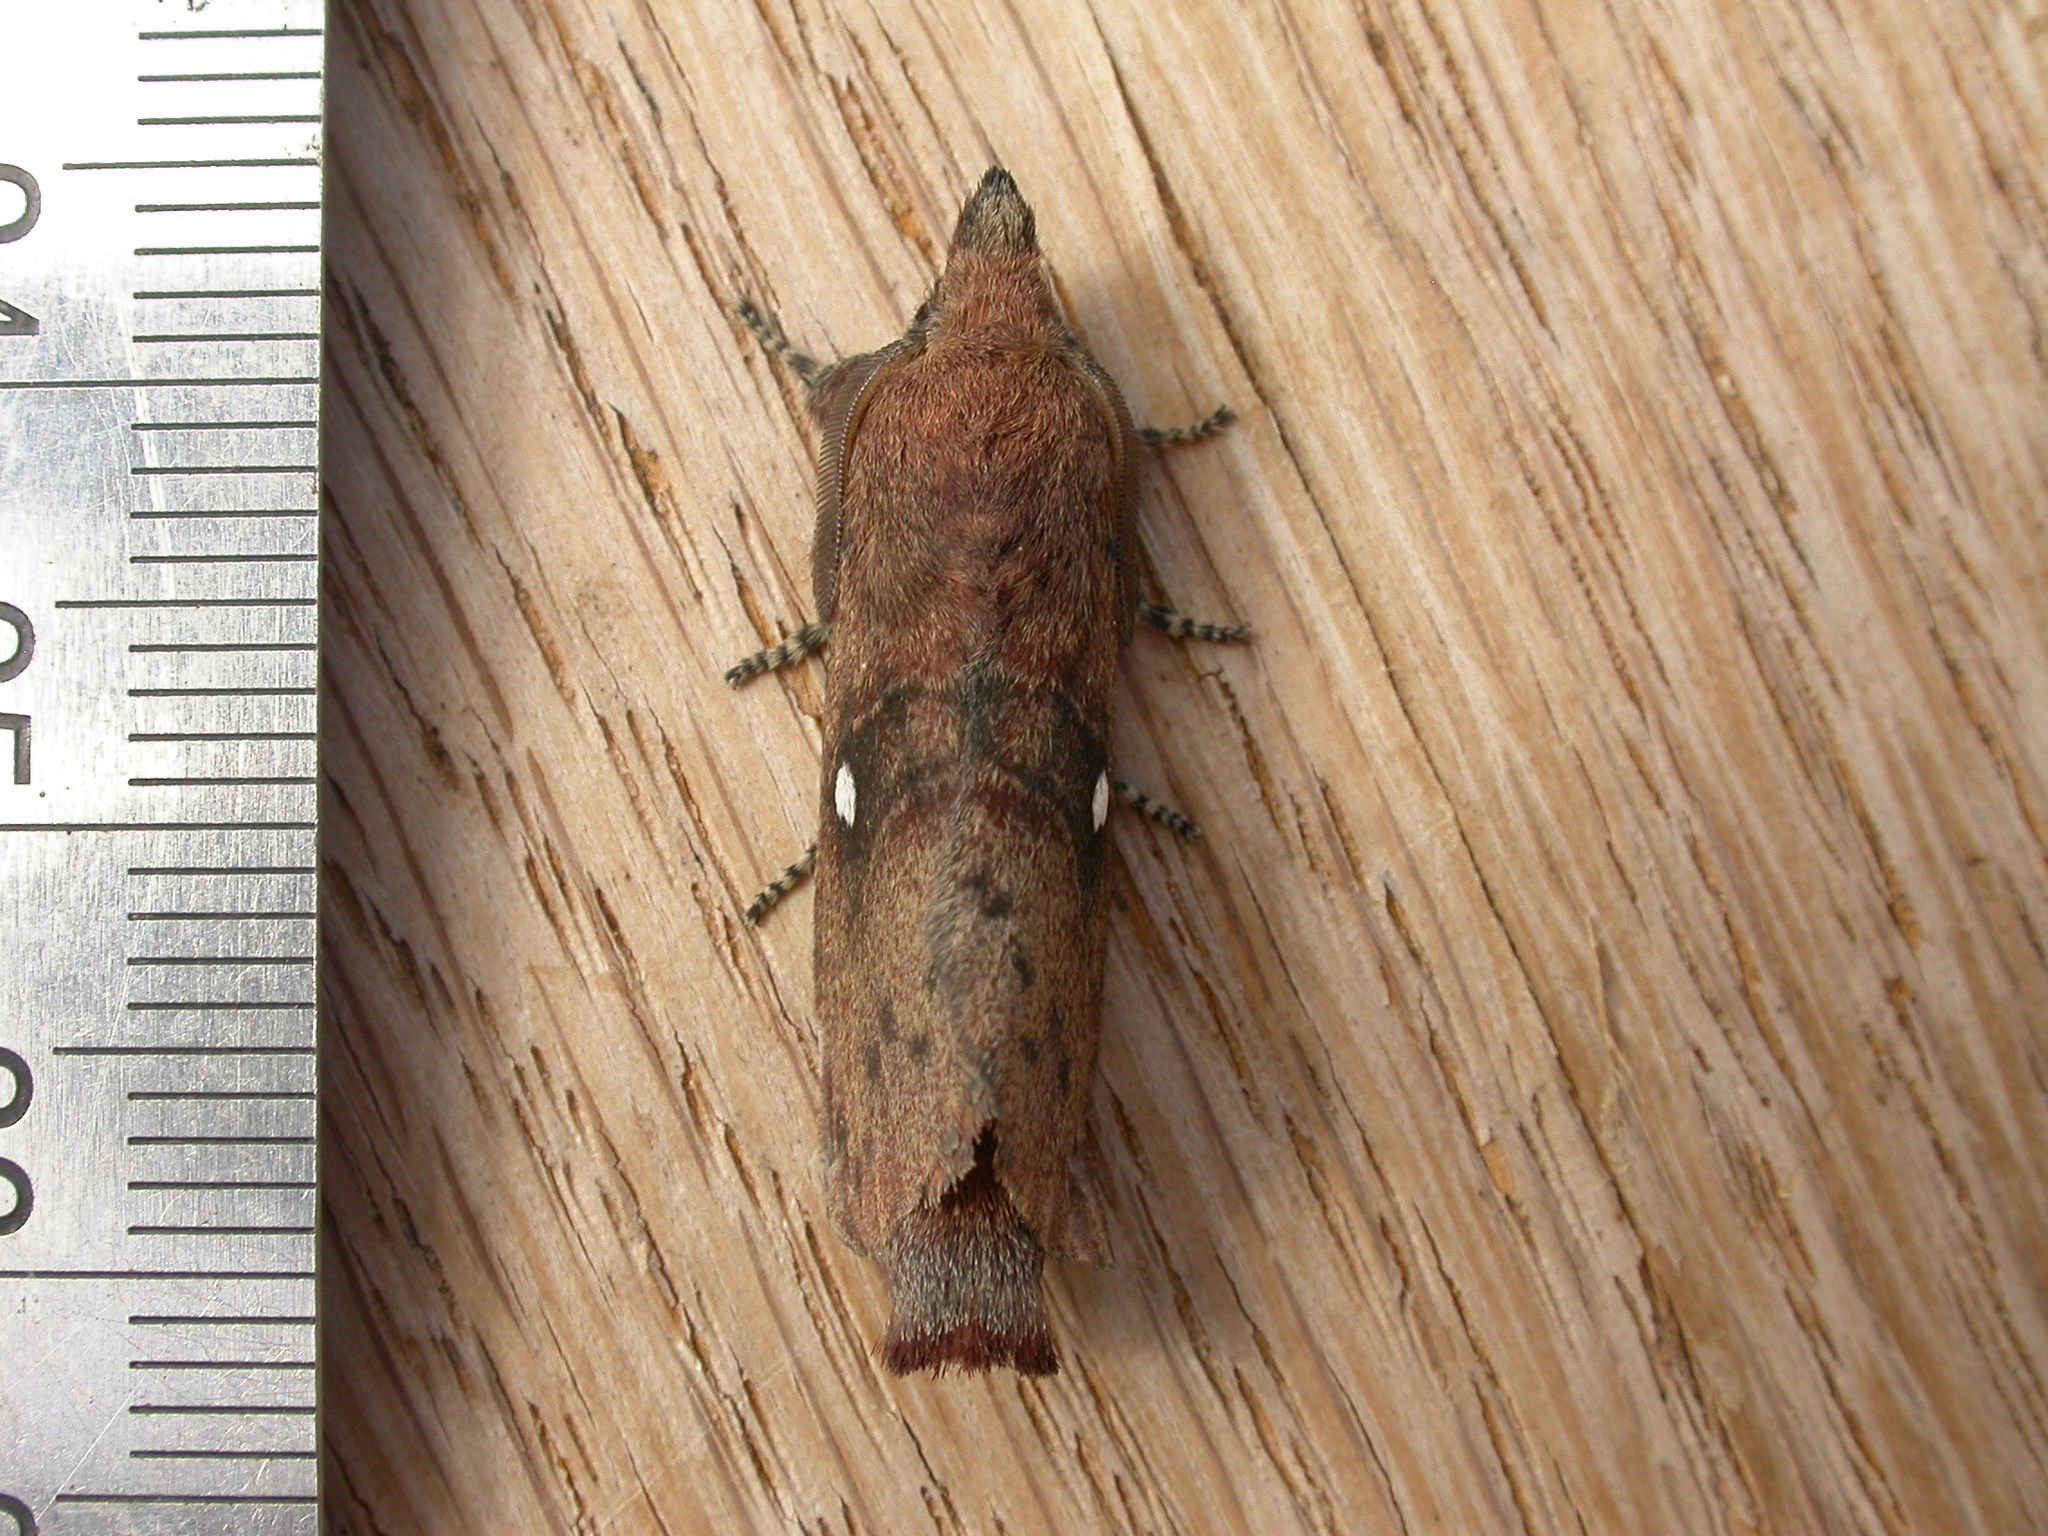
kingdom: Animalia
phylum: Arthropoda
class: Insecta
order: Lepidoptera
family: Lasiocampidae
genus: Opsirhina
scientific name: Opsirhina lechriodes
